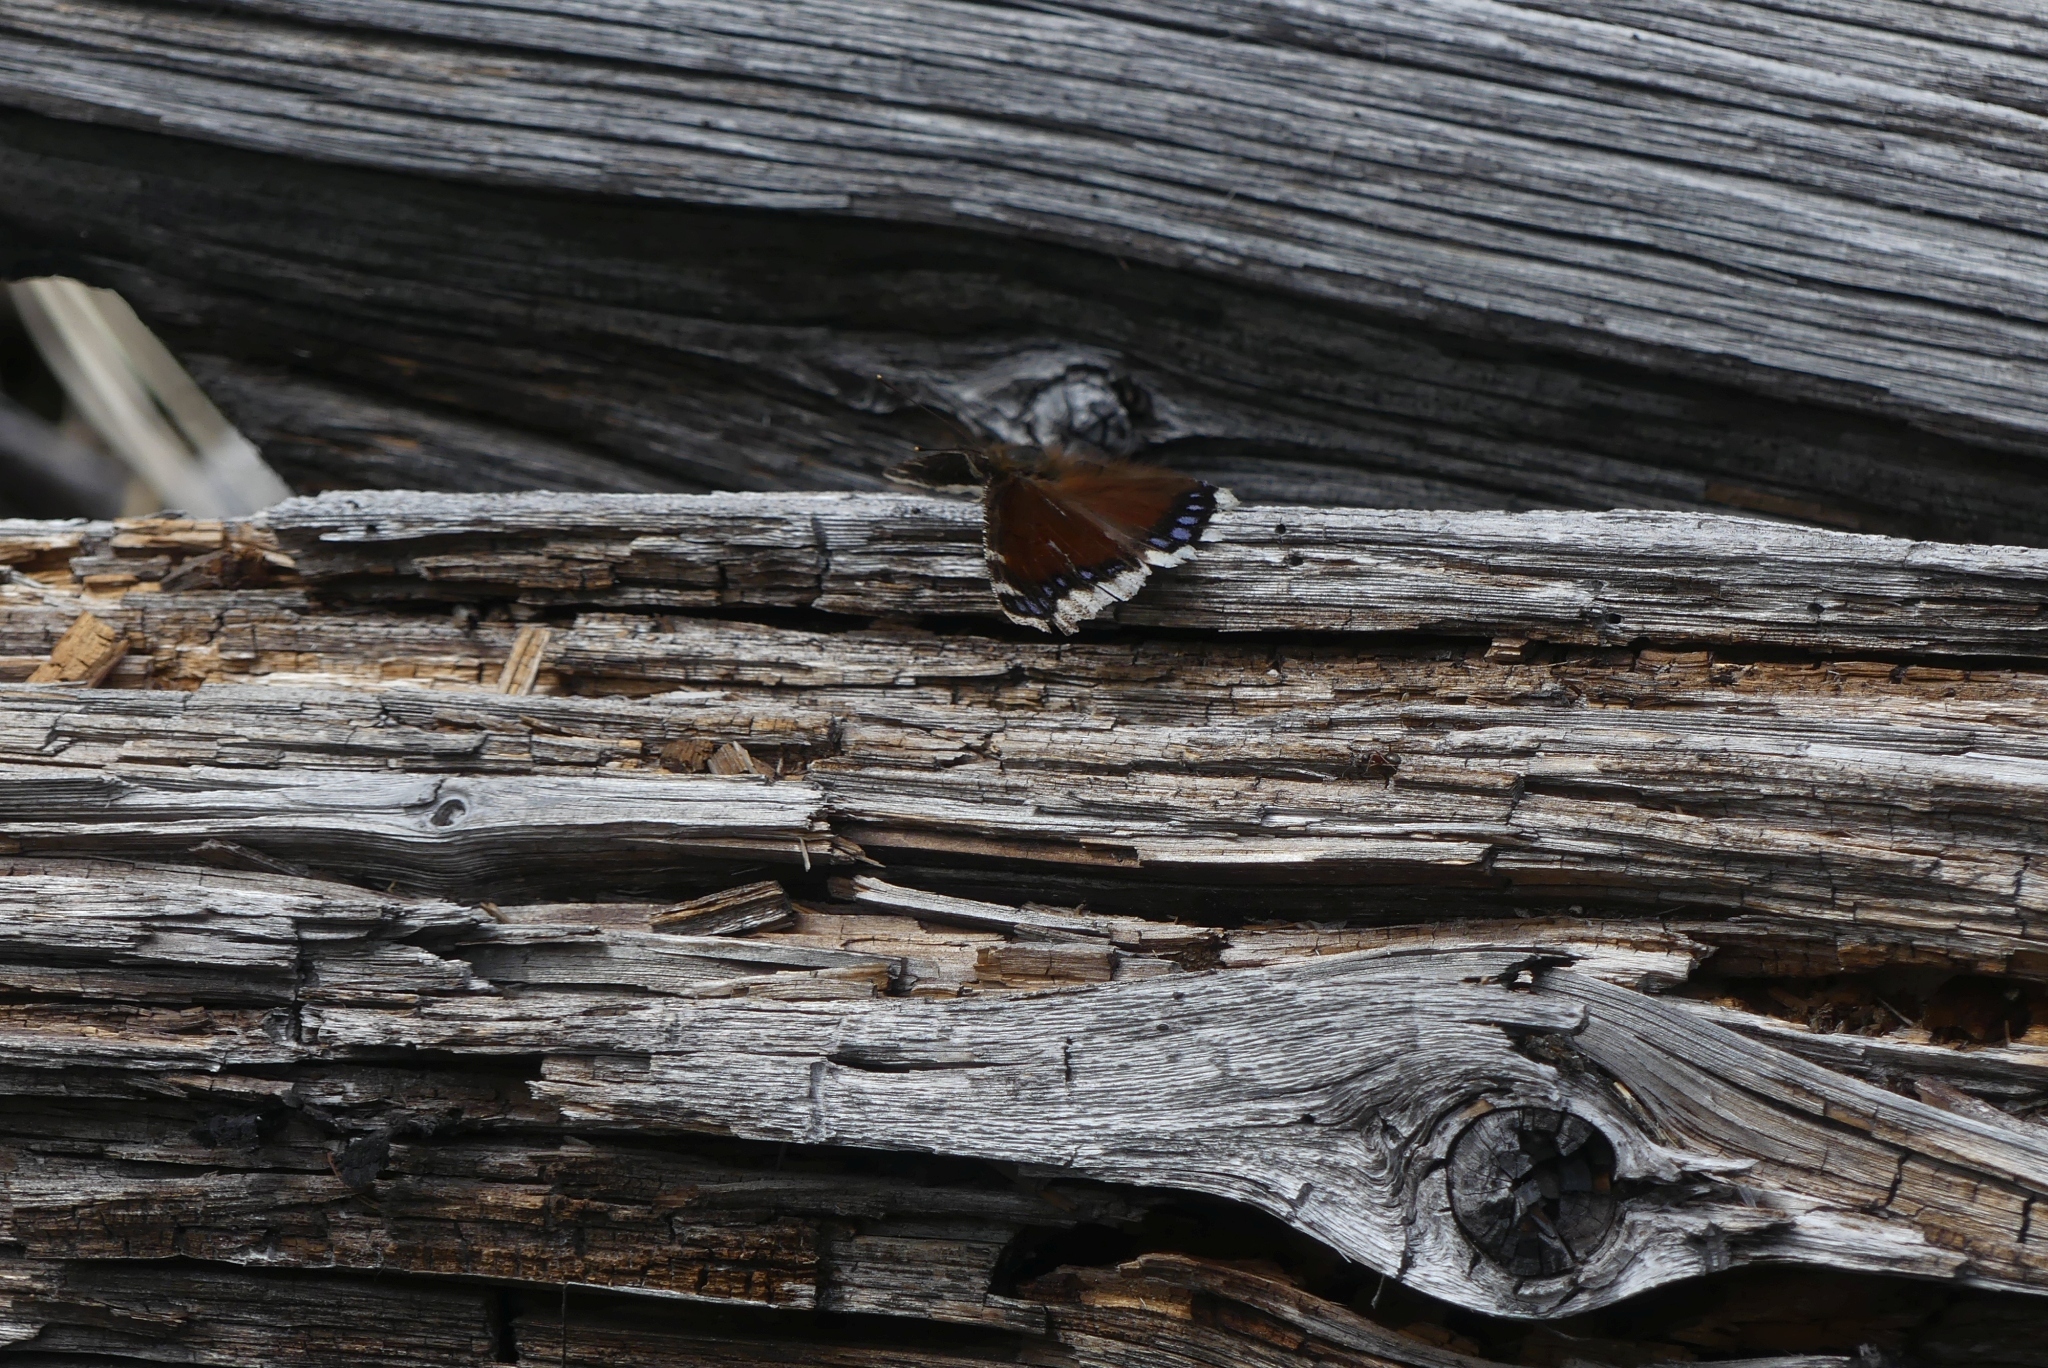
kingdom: Animalia
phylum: Arthropoda
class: Insecta
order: Lepidoptera
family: Nymphalidae
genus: Nymphalis
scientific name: Nymphalis antiopa
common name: Camberwell beauty
